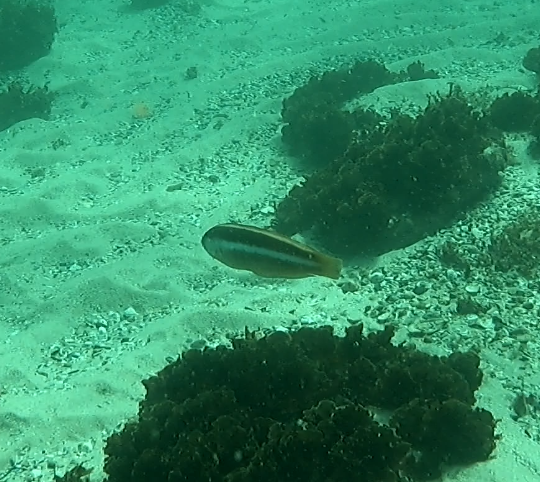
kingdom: Animalia
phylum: Chordata
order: Perciformes
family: Labridae
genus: Ophthalmolepis
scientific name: Ophthalmolepis lineolata
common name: Maori wrasse
